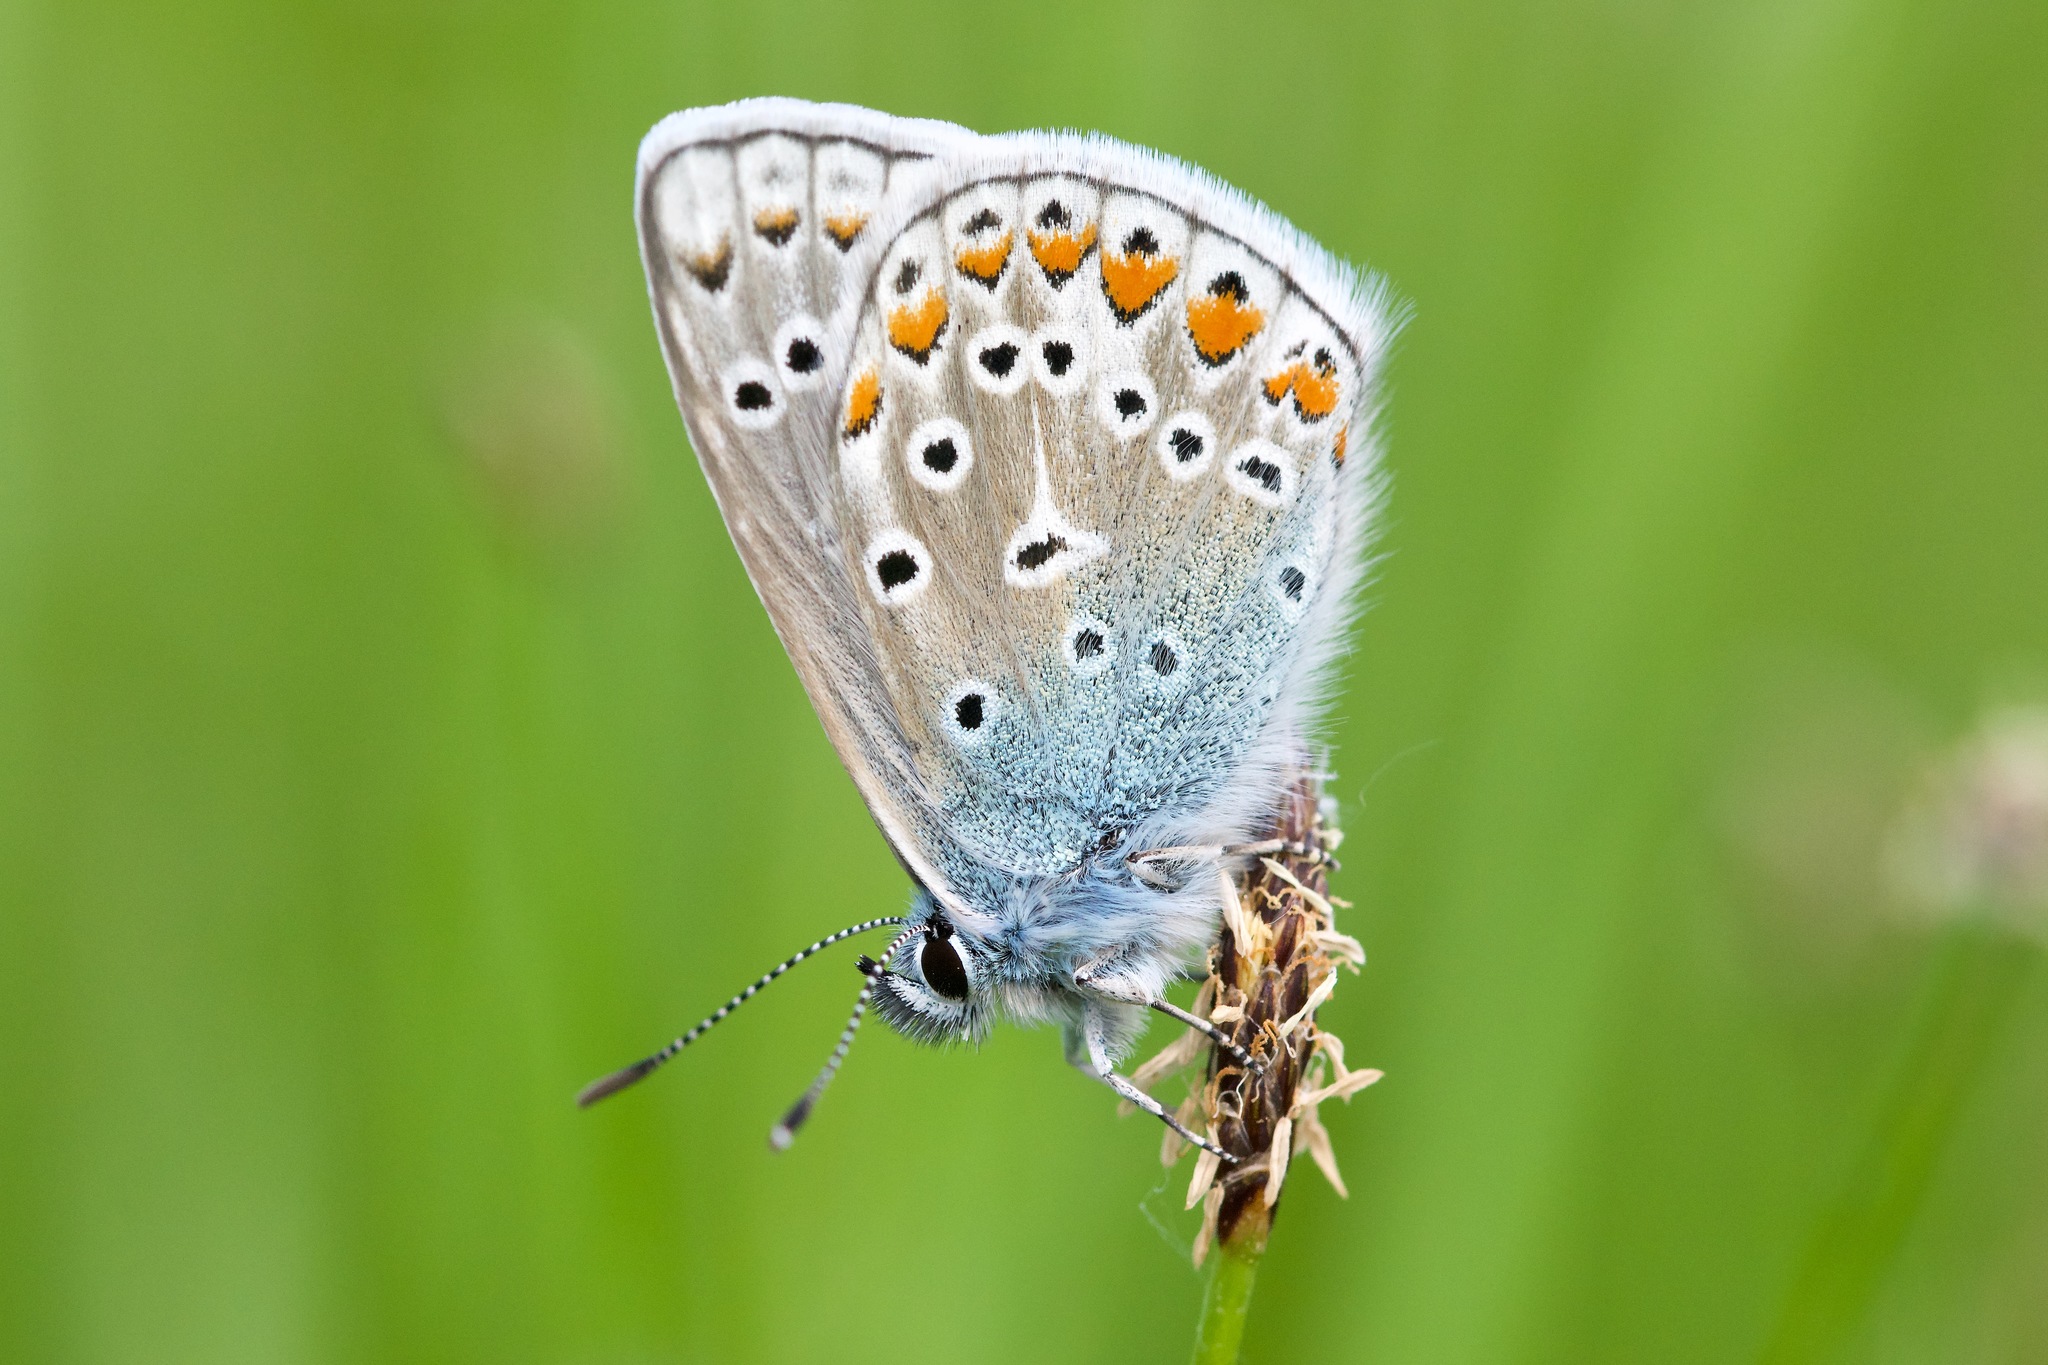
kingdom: Animalia
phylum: Arthropoda
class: Insecta
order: Lepidoptera
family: Lycaenidae
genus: Polyommatus
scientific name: Polyommatus icarus
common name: Common blue
